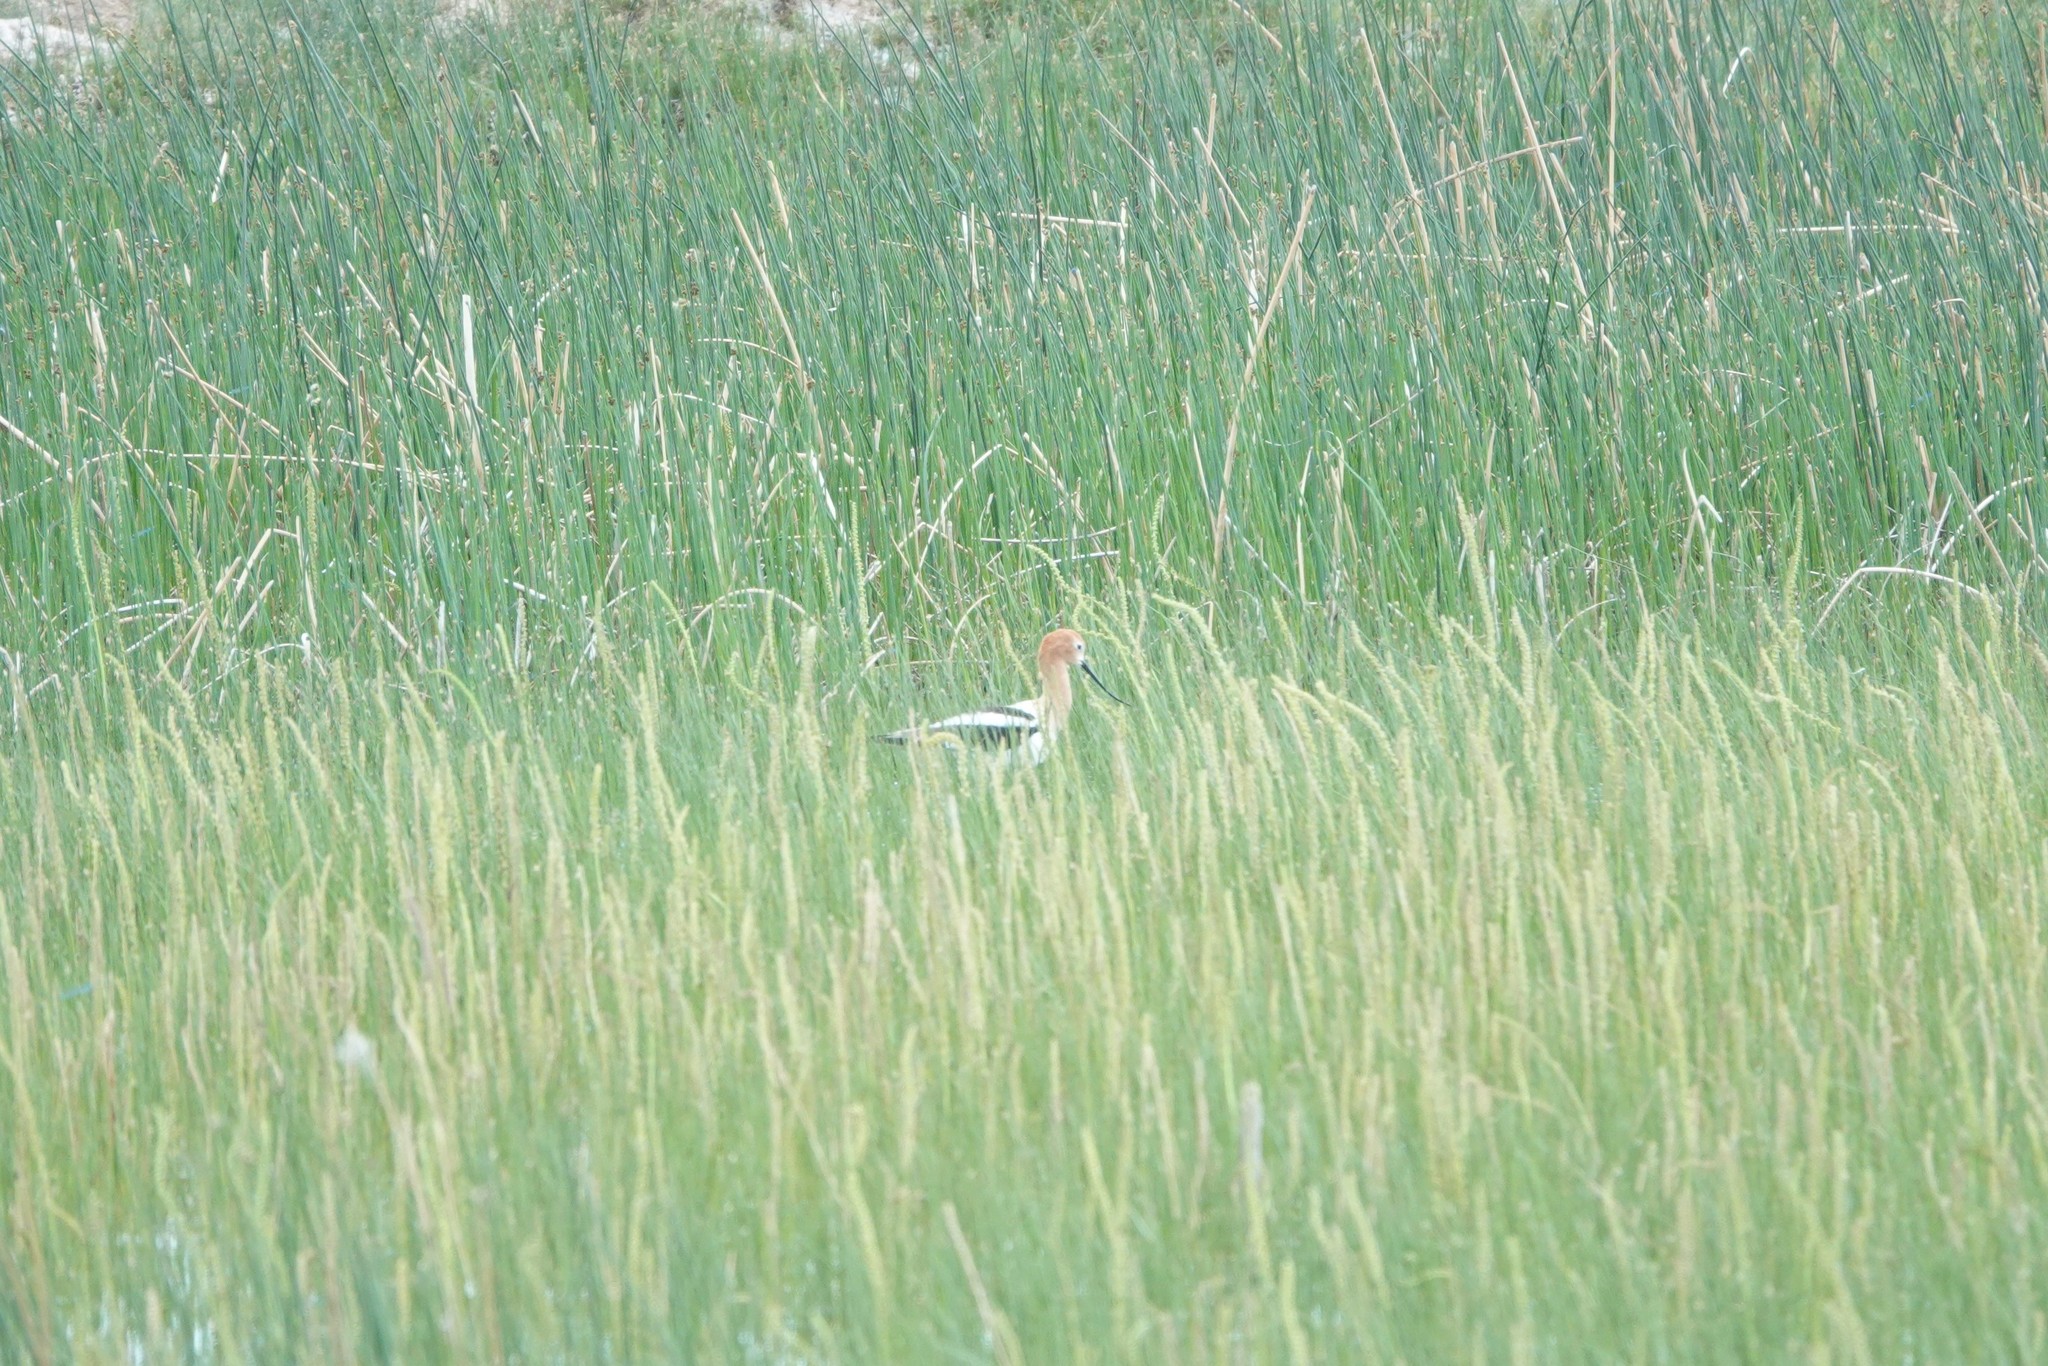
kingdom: Animalia
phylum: Chordata
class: Aves
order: Charadriiformes
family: Recurvirostridae
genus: Recurvirostra
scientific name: Recurvirostra americana
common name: American avocet
